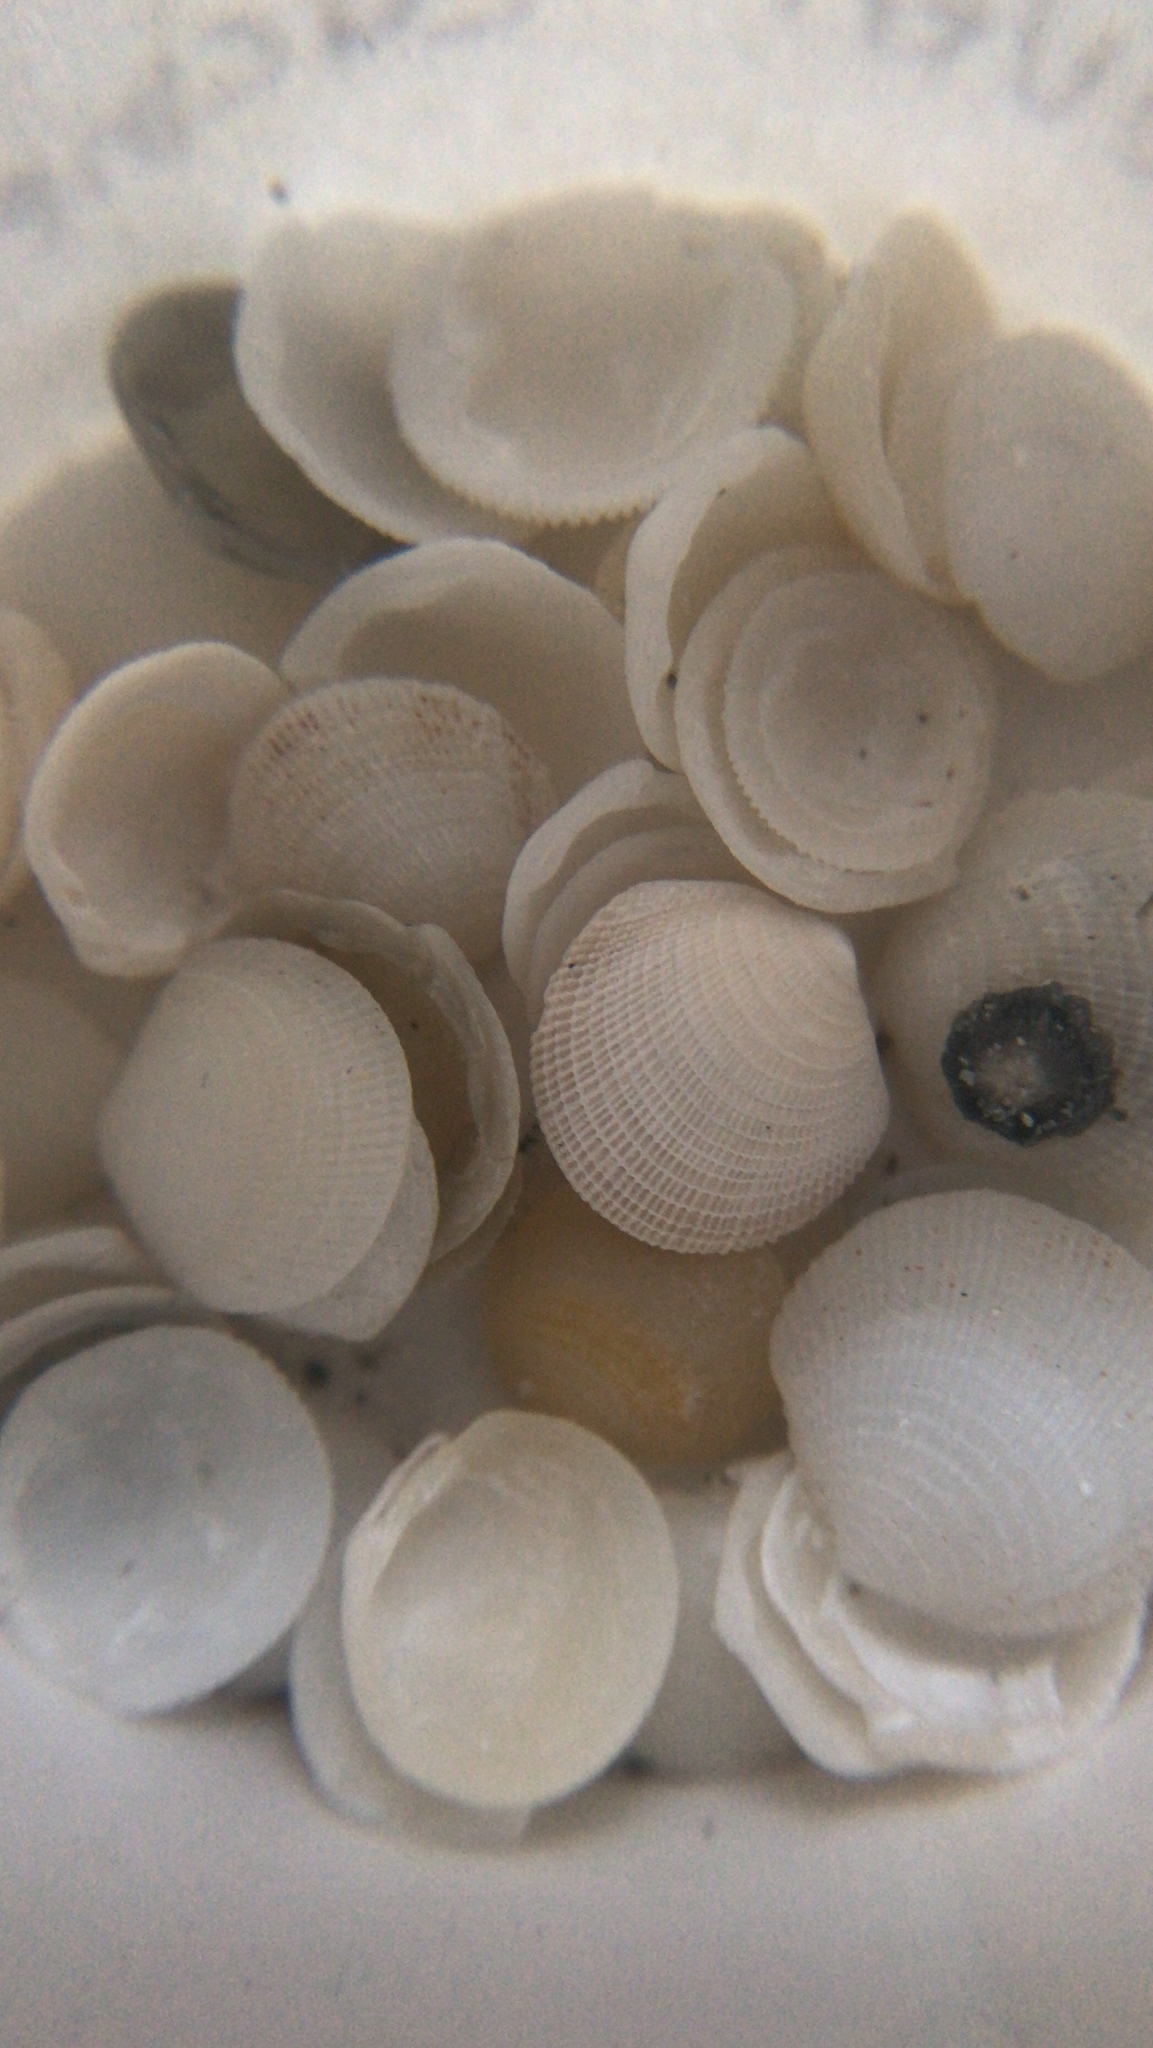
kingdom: Animalia
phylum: Mollusca
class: Bivalvia
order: Lucinida
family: Lucinidae
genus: Lucinisca
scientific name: Lucinisca nassula
